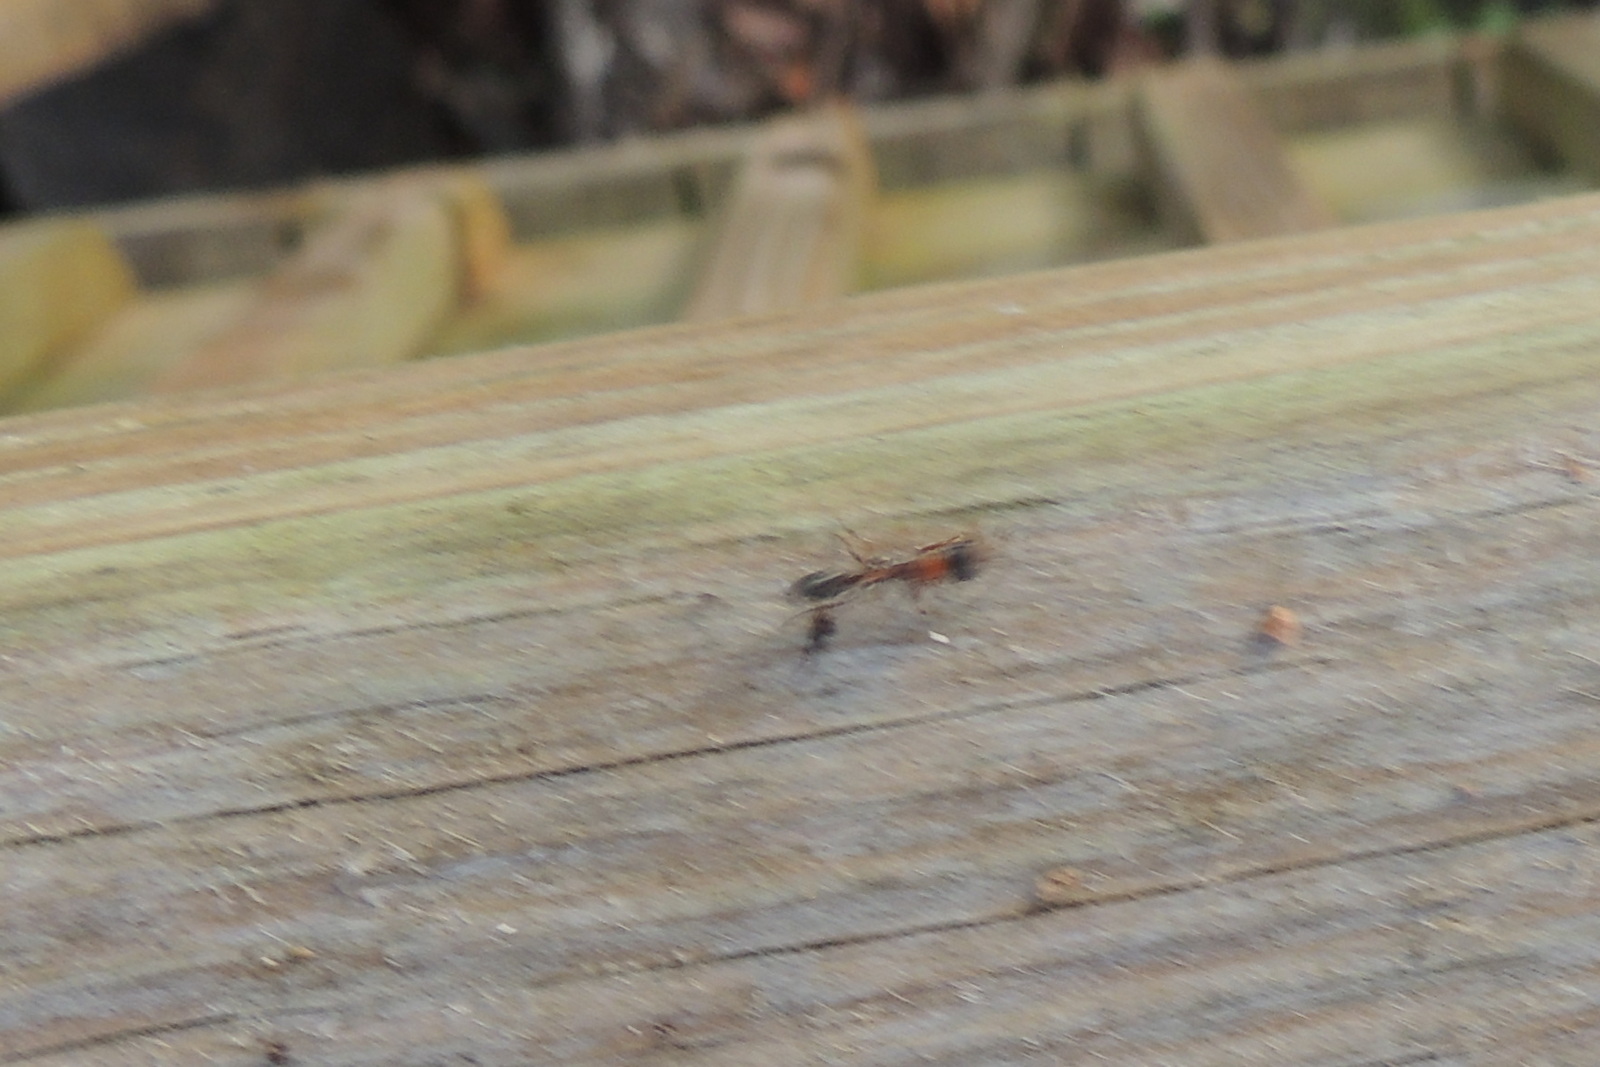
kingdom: Animalia
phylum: Arthropoda
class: Insecta
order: Hymenoptera
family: Formicidae
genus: Pseudomyrmex
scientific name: Pseudomyrmex gracilis
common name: Graceful twig ant
